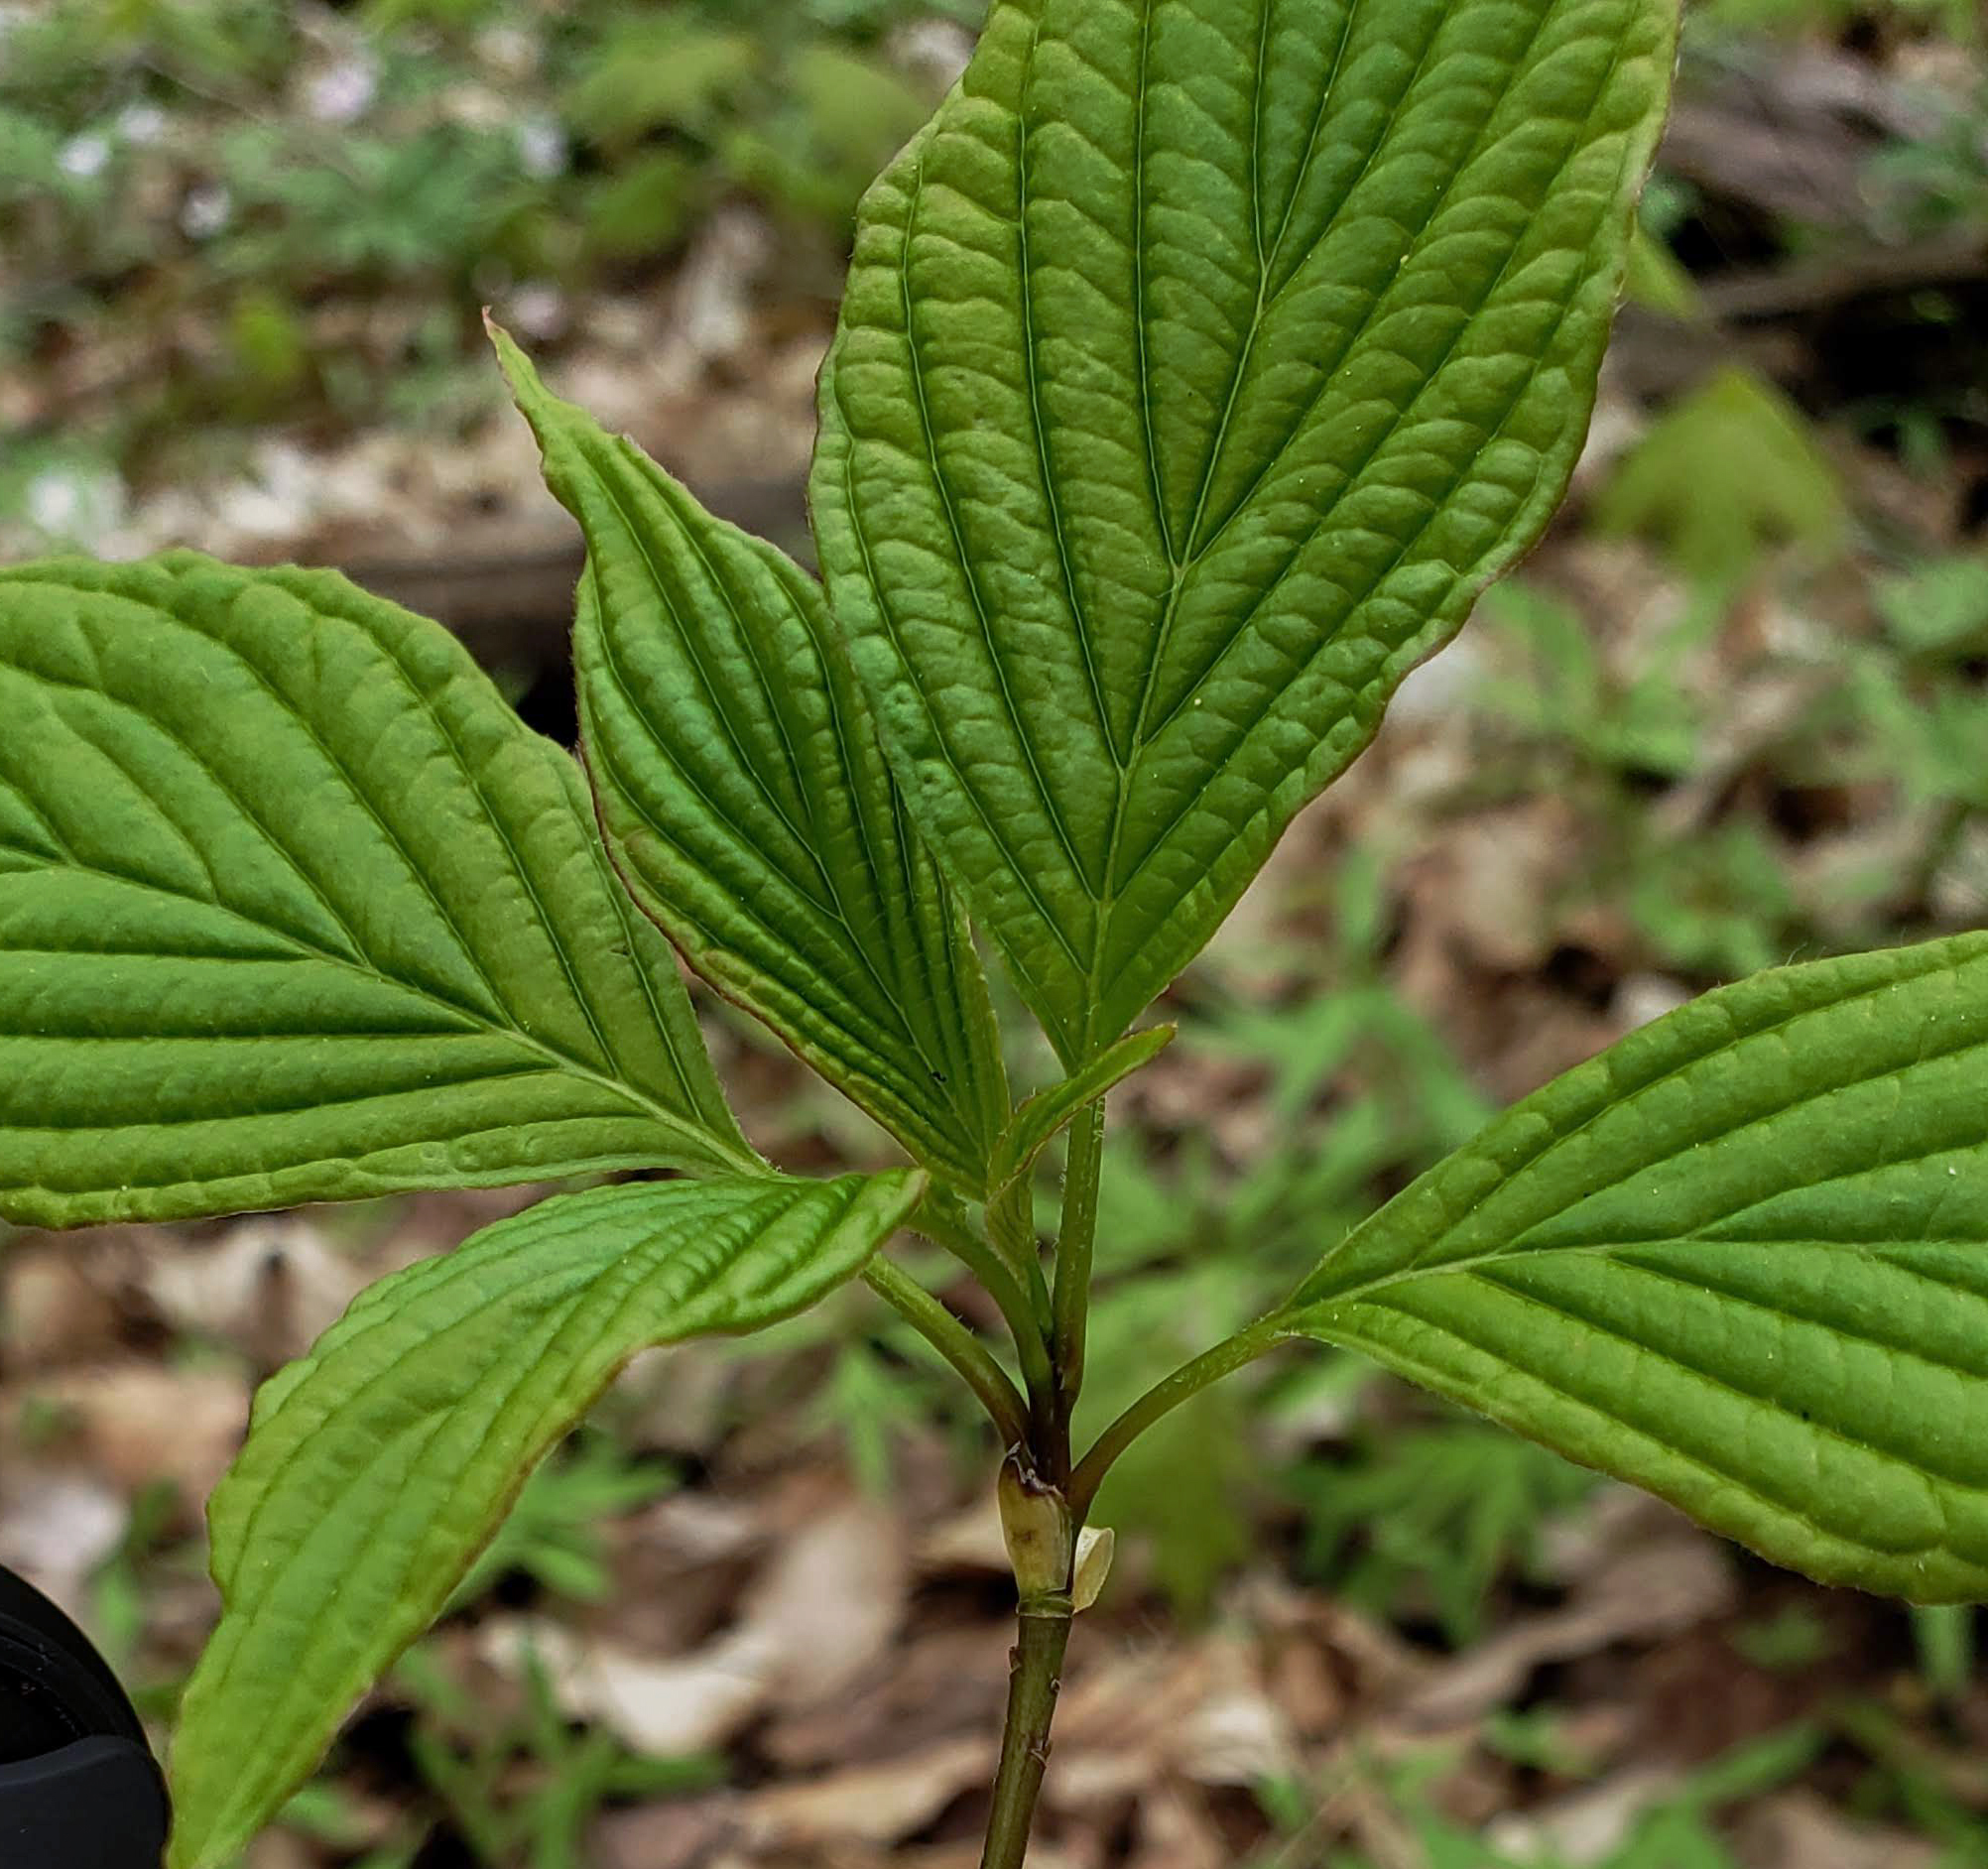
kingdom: Plantae
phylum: Tracheophyta
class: Magnoliopsida
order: Cornales
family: Cornaceae
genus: Cornus
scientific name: Cornus alternifolia
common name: Pagoda dogwood
